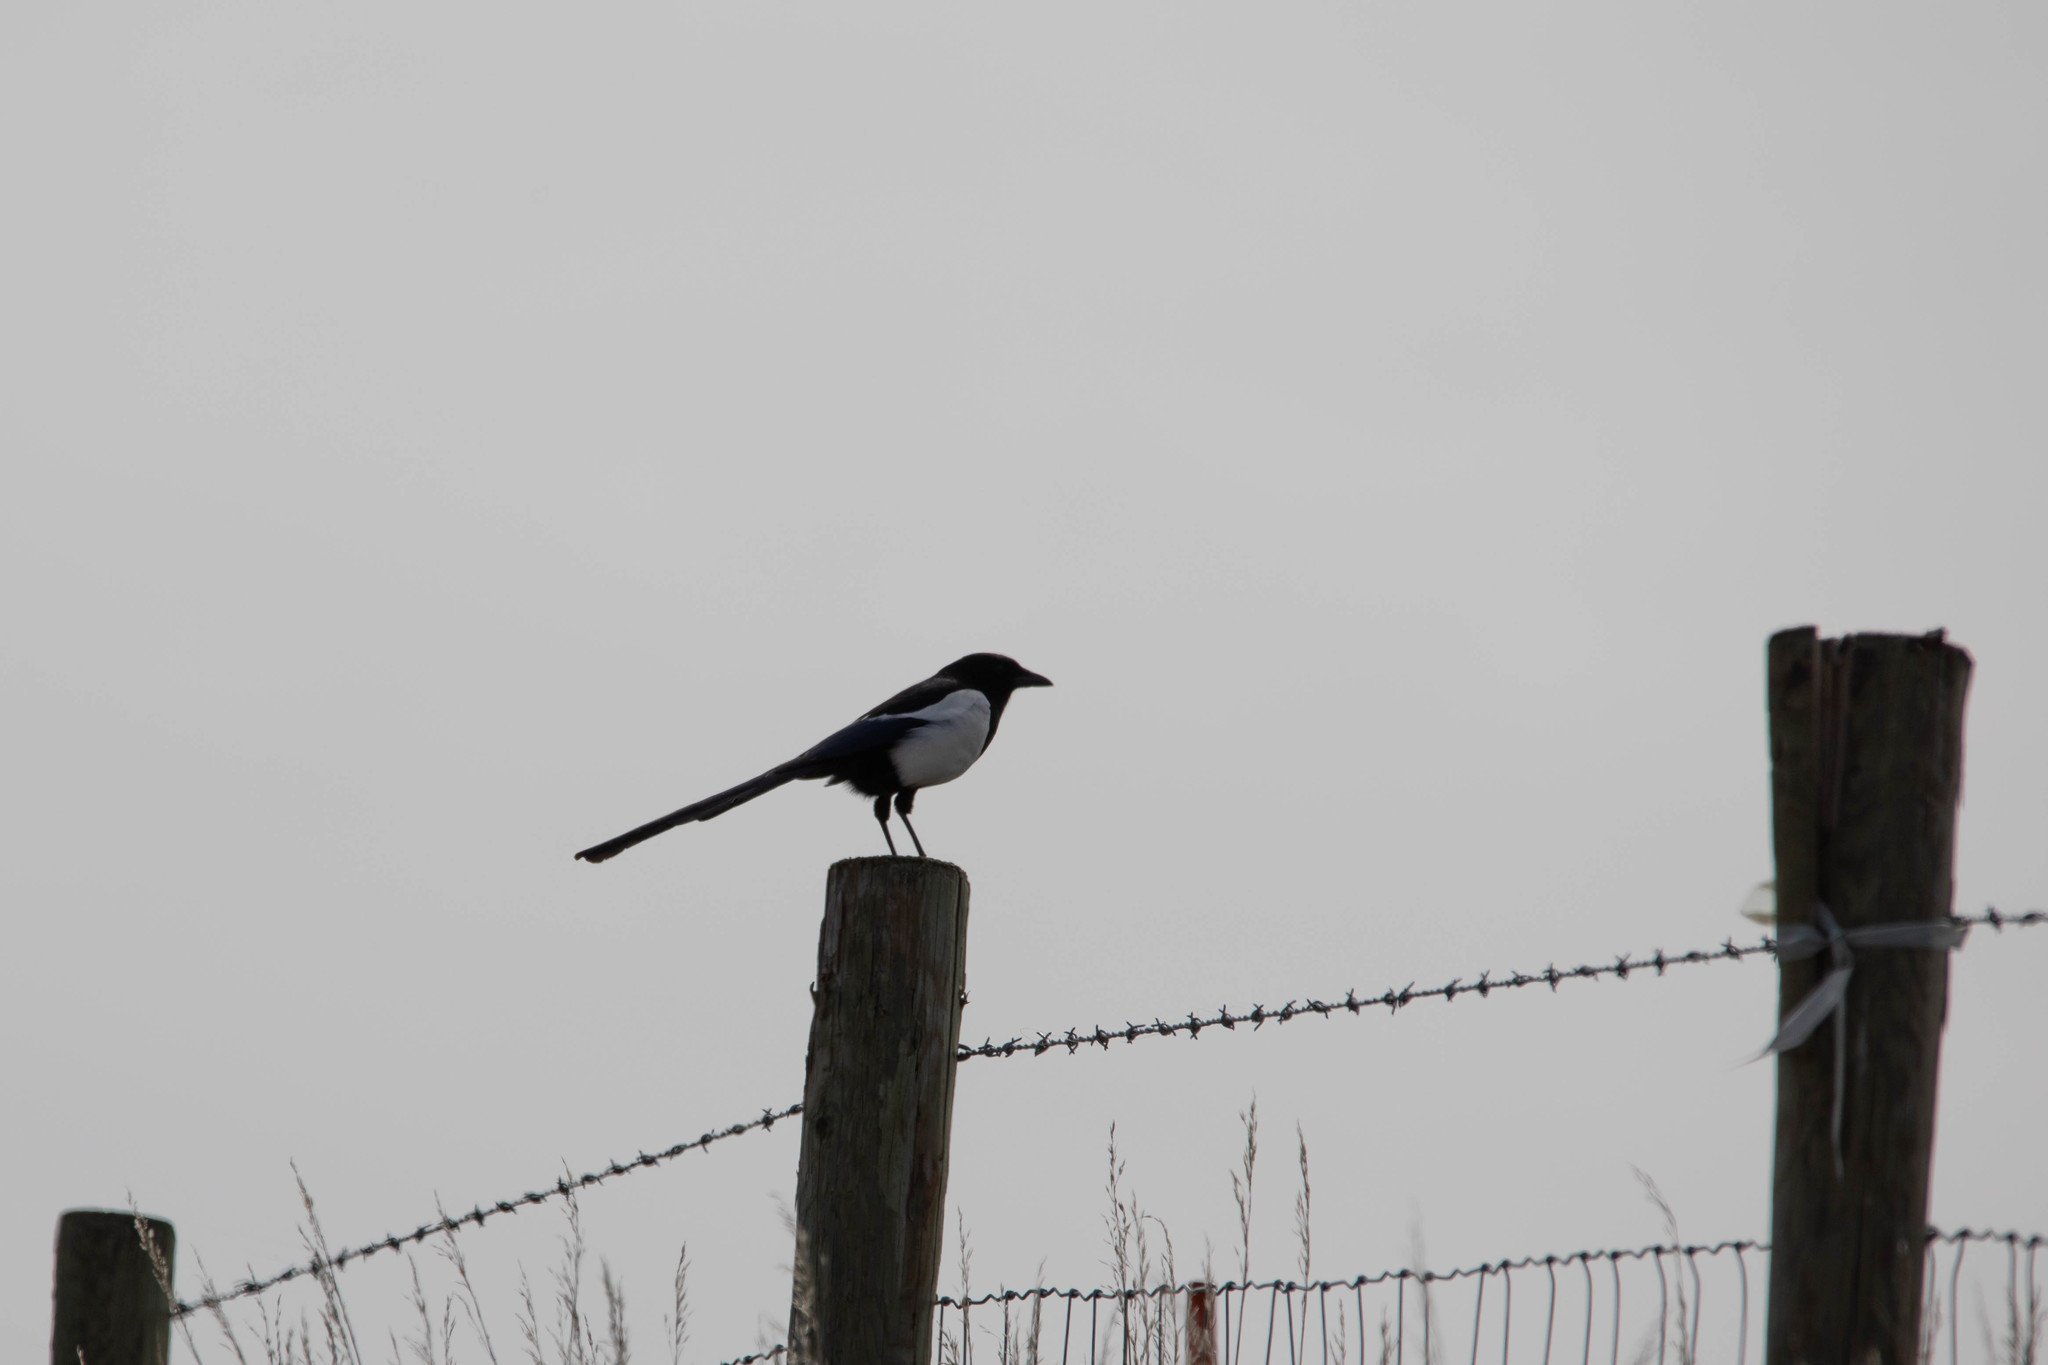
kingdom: Animalia
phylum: Chordata
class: Aves
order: Passeriformes
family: Corvidae
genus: Pica
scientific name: Pica hudsonia
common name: Black-billed magpie
